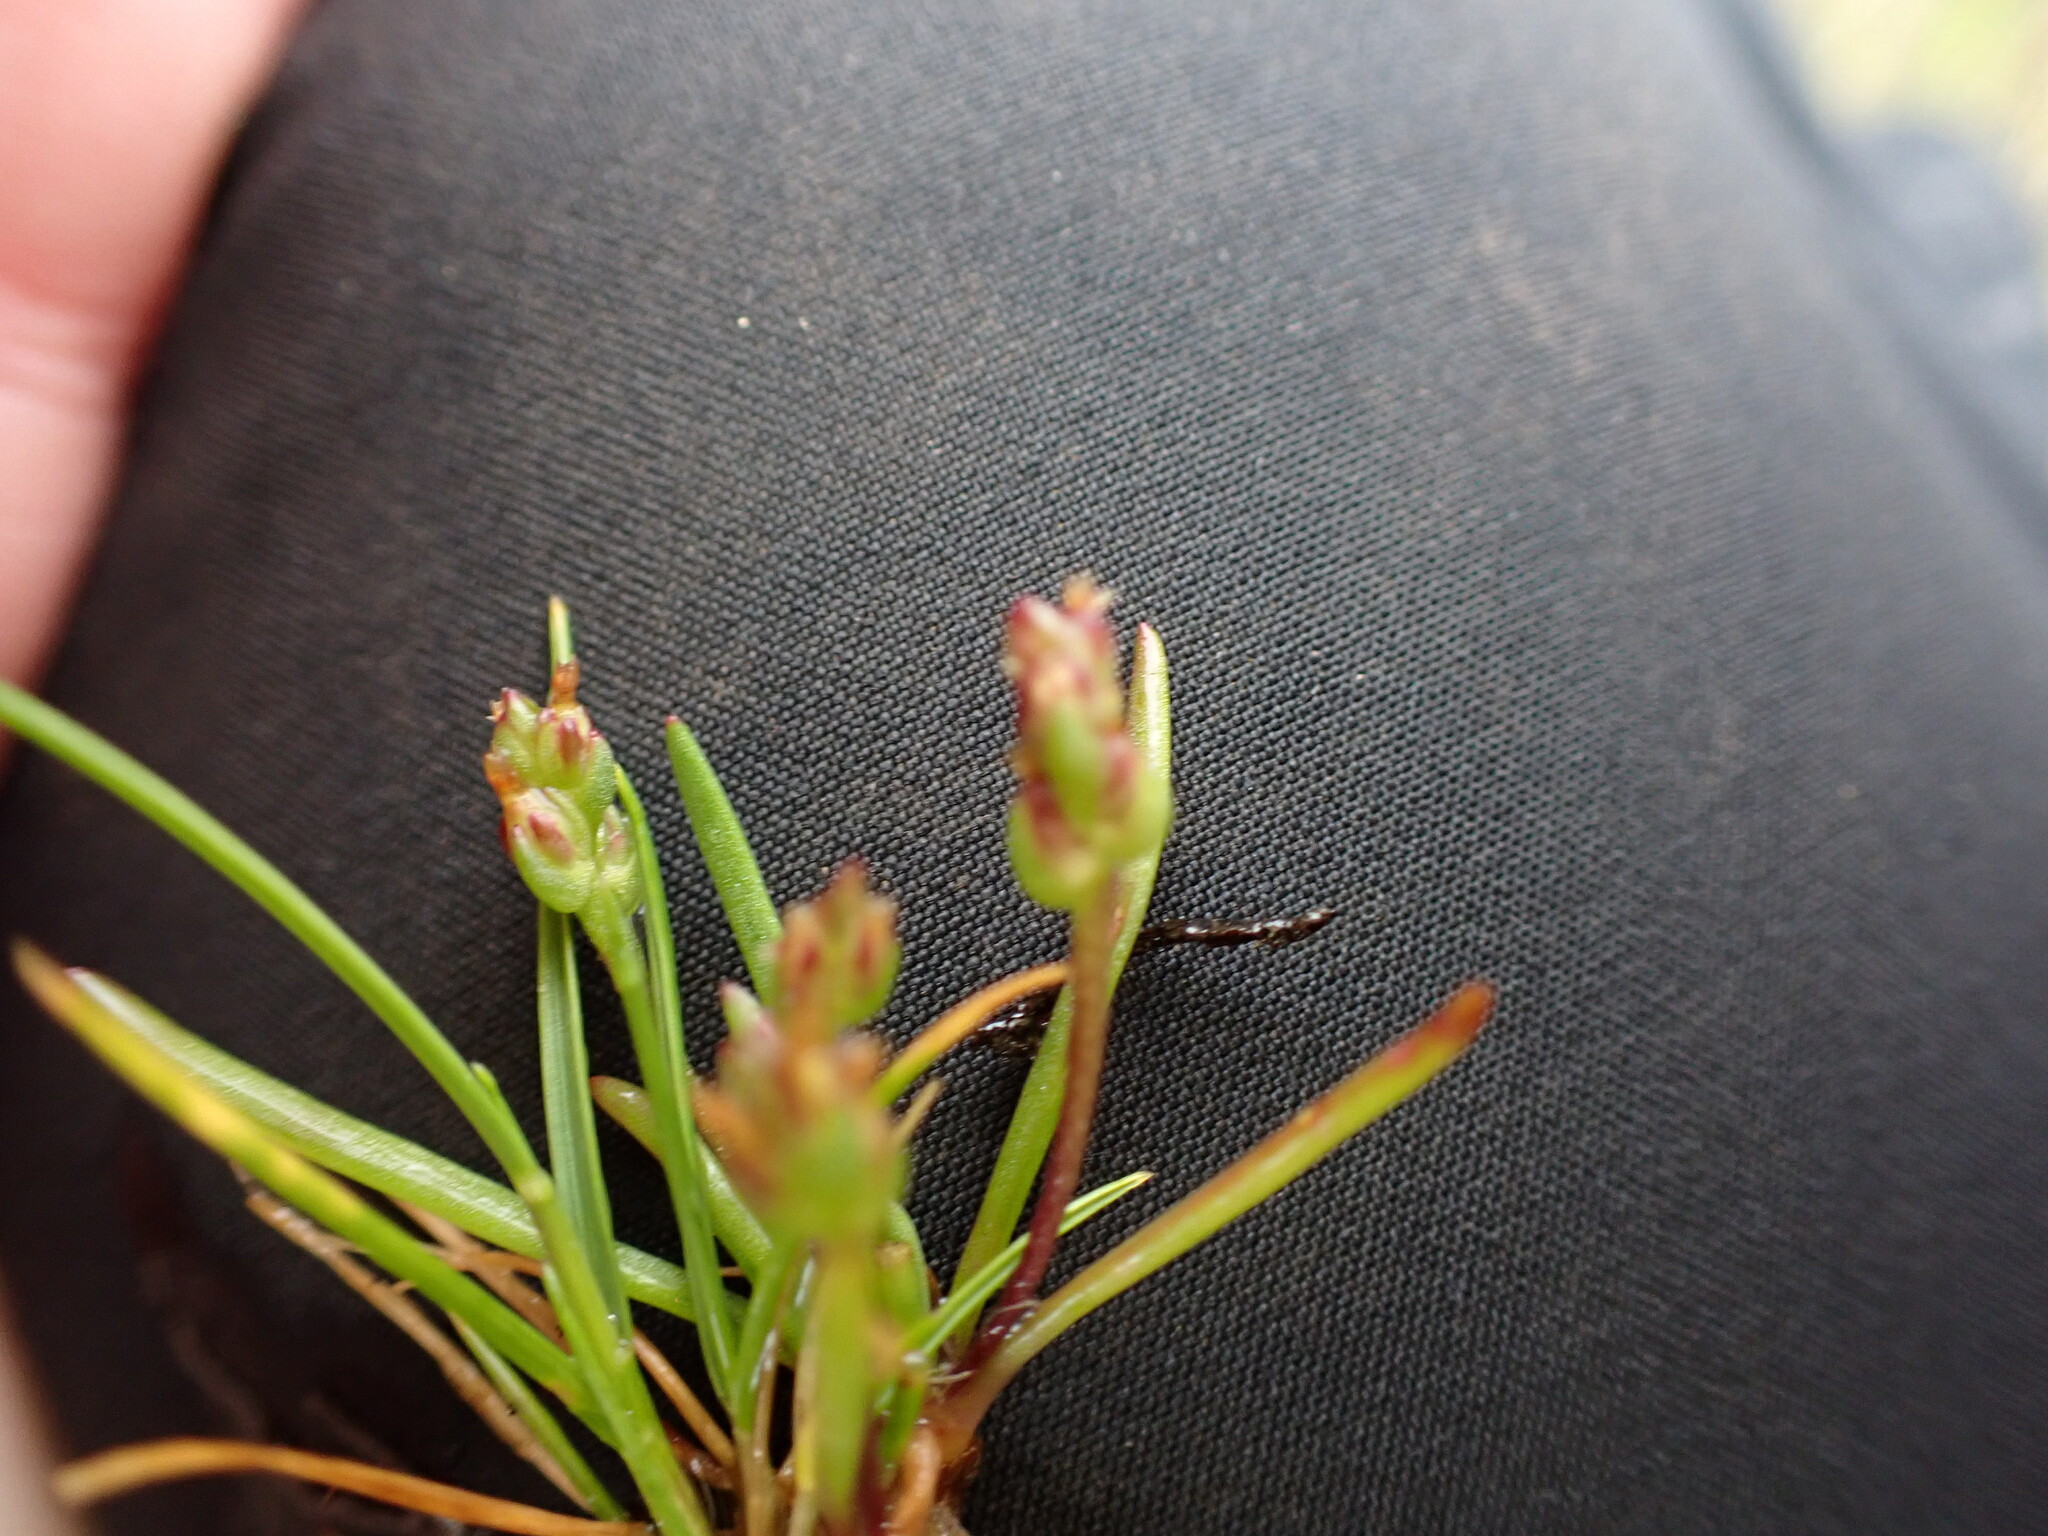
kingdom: Plantae
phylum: Tracheophyta
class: Magnoliopsida
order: Lamiales
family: Plantaginaceae
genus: Plantago
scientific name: Plantago elongata
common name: Linear-leaved plantain
